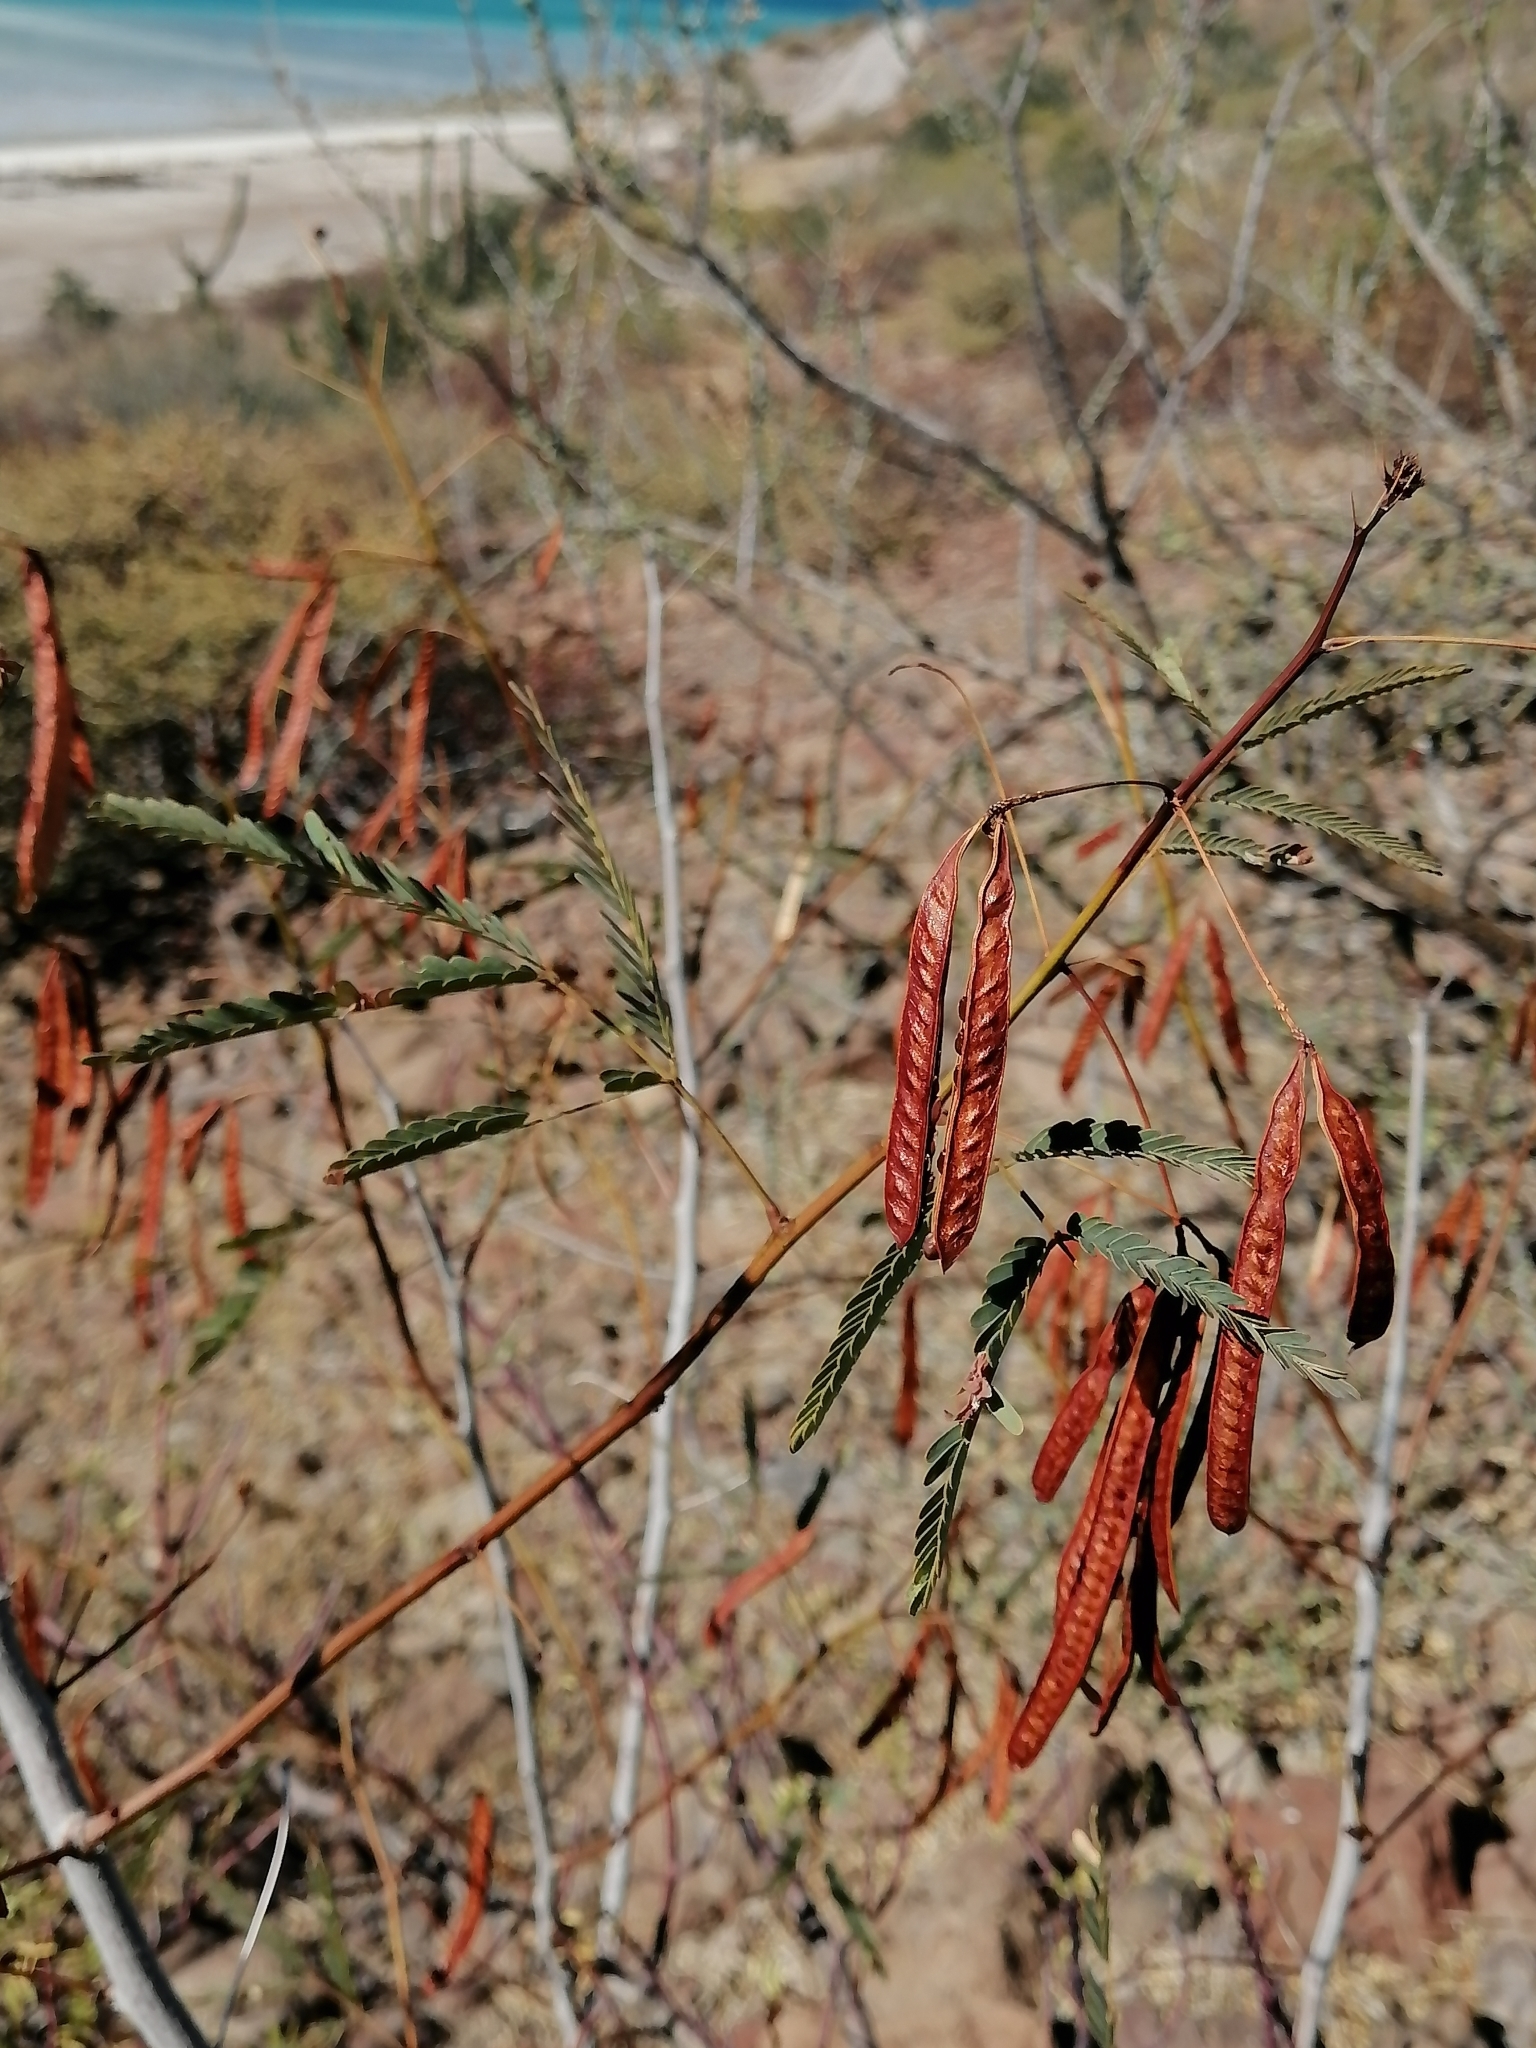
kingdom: Plantae
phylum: Tracheophyta
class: Magnoliopsida
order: Fabales
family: Fabaceae
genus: Desmanthus
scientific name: Desmanthus fruticosus
